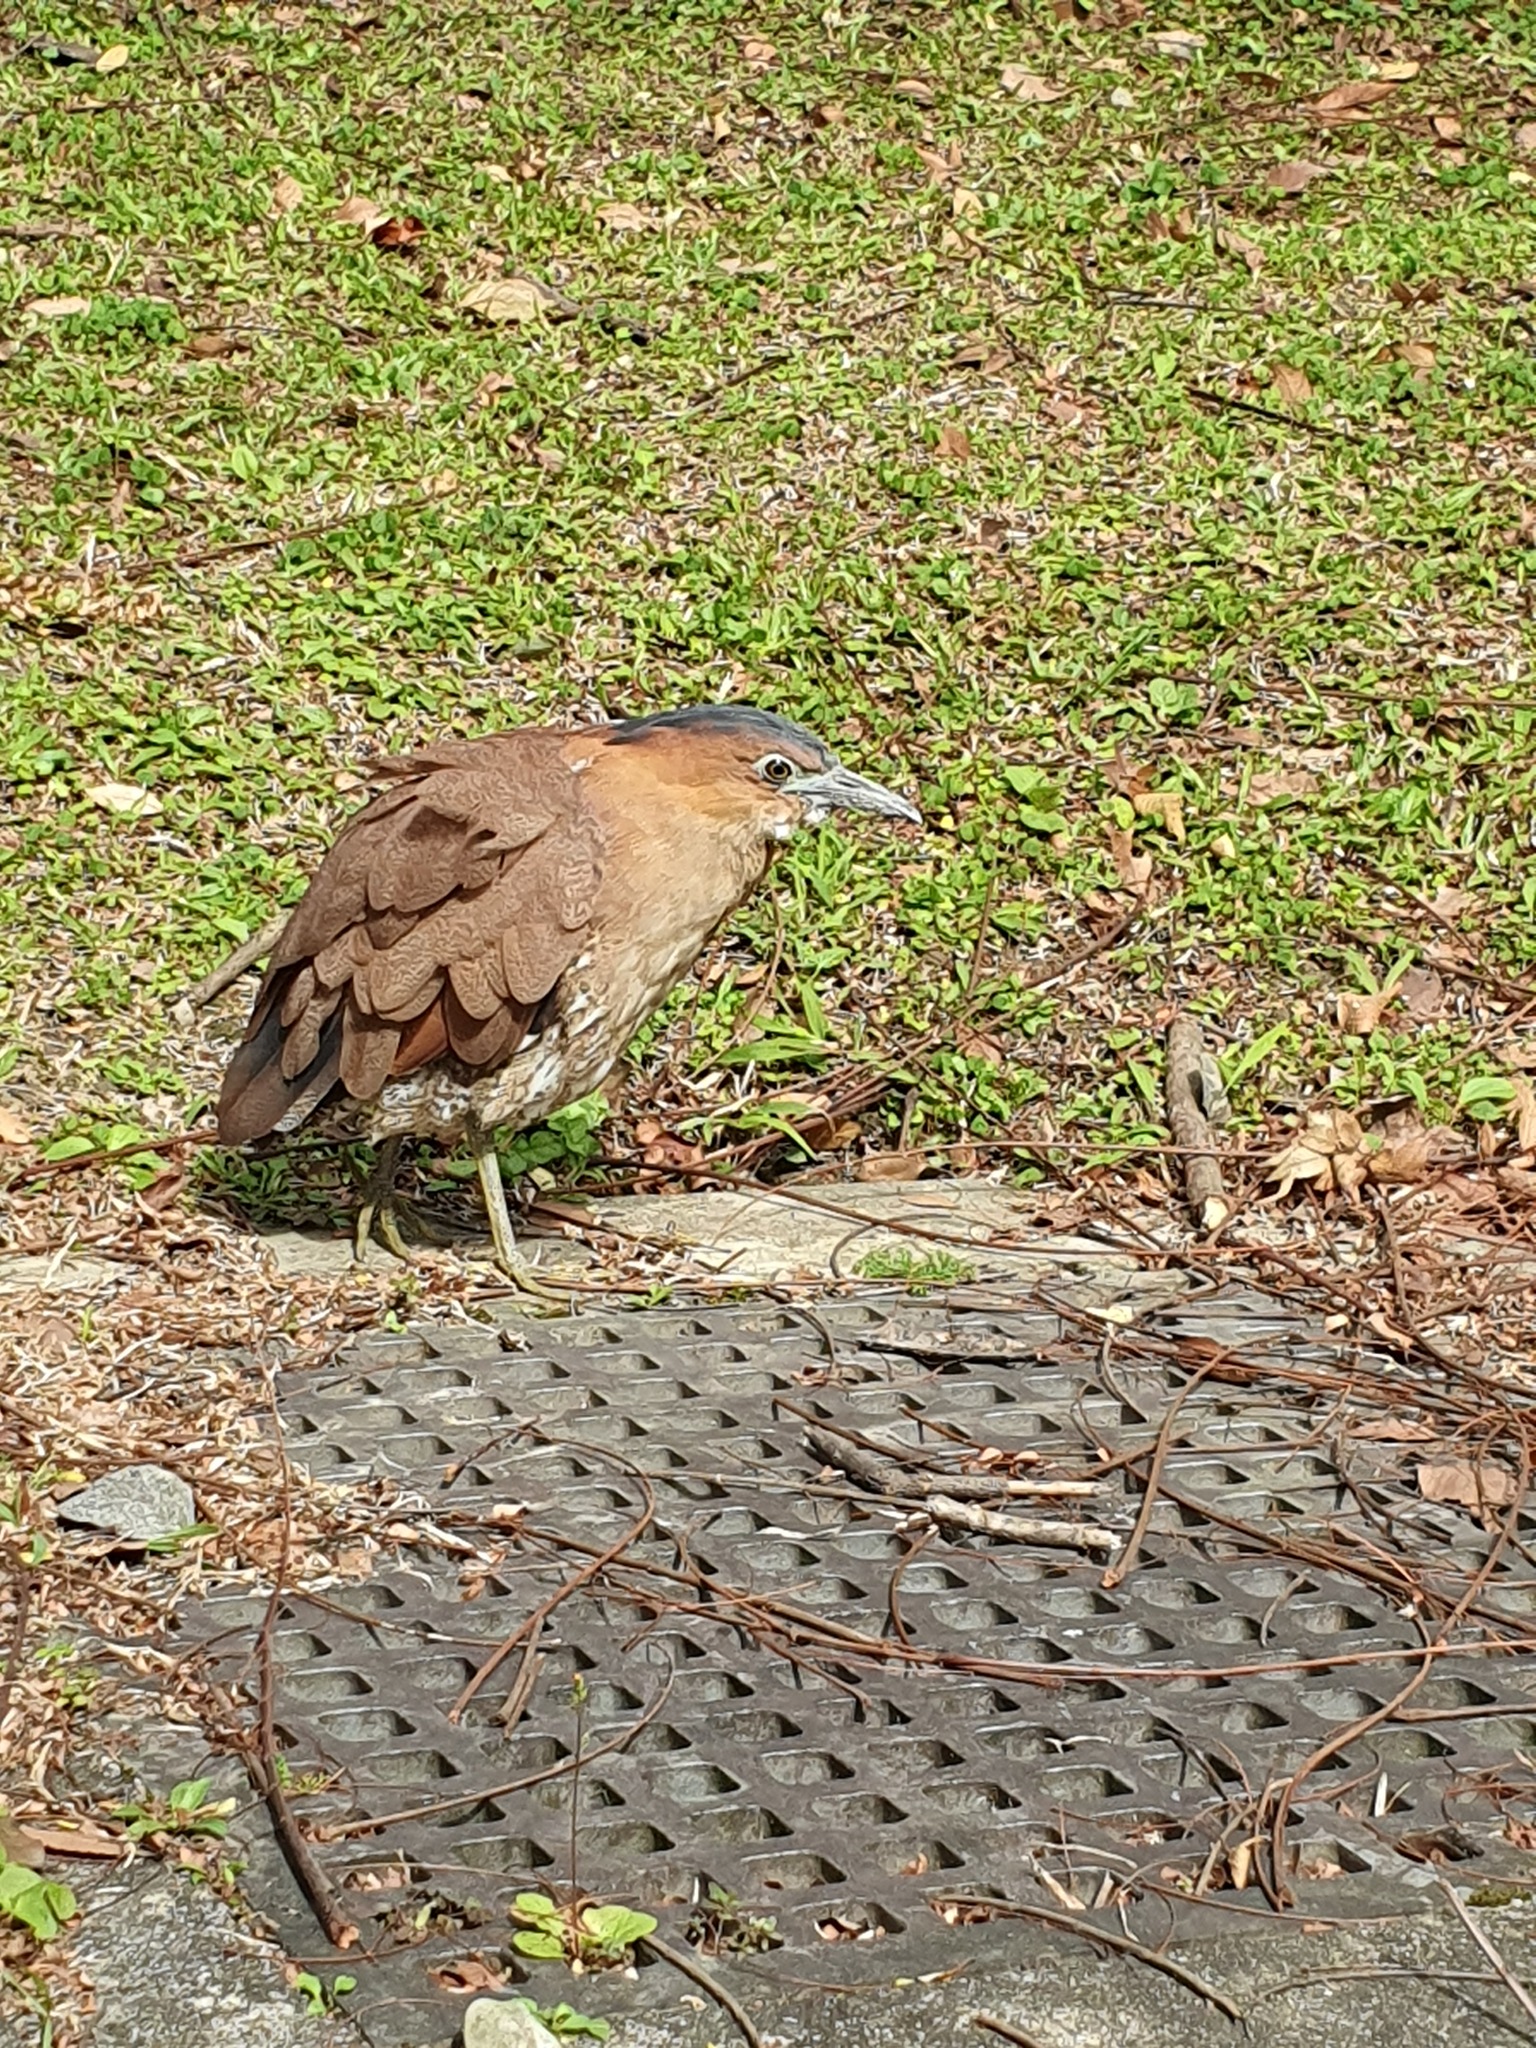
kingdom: Animalia
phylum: Chordata
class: Aves
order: Pelecaniformes
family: Ardeidae
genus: Gorsachius
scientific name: Gorsachius melanolophus
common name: Malayan night heron
